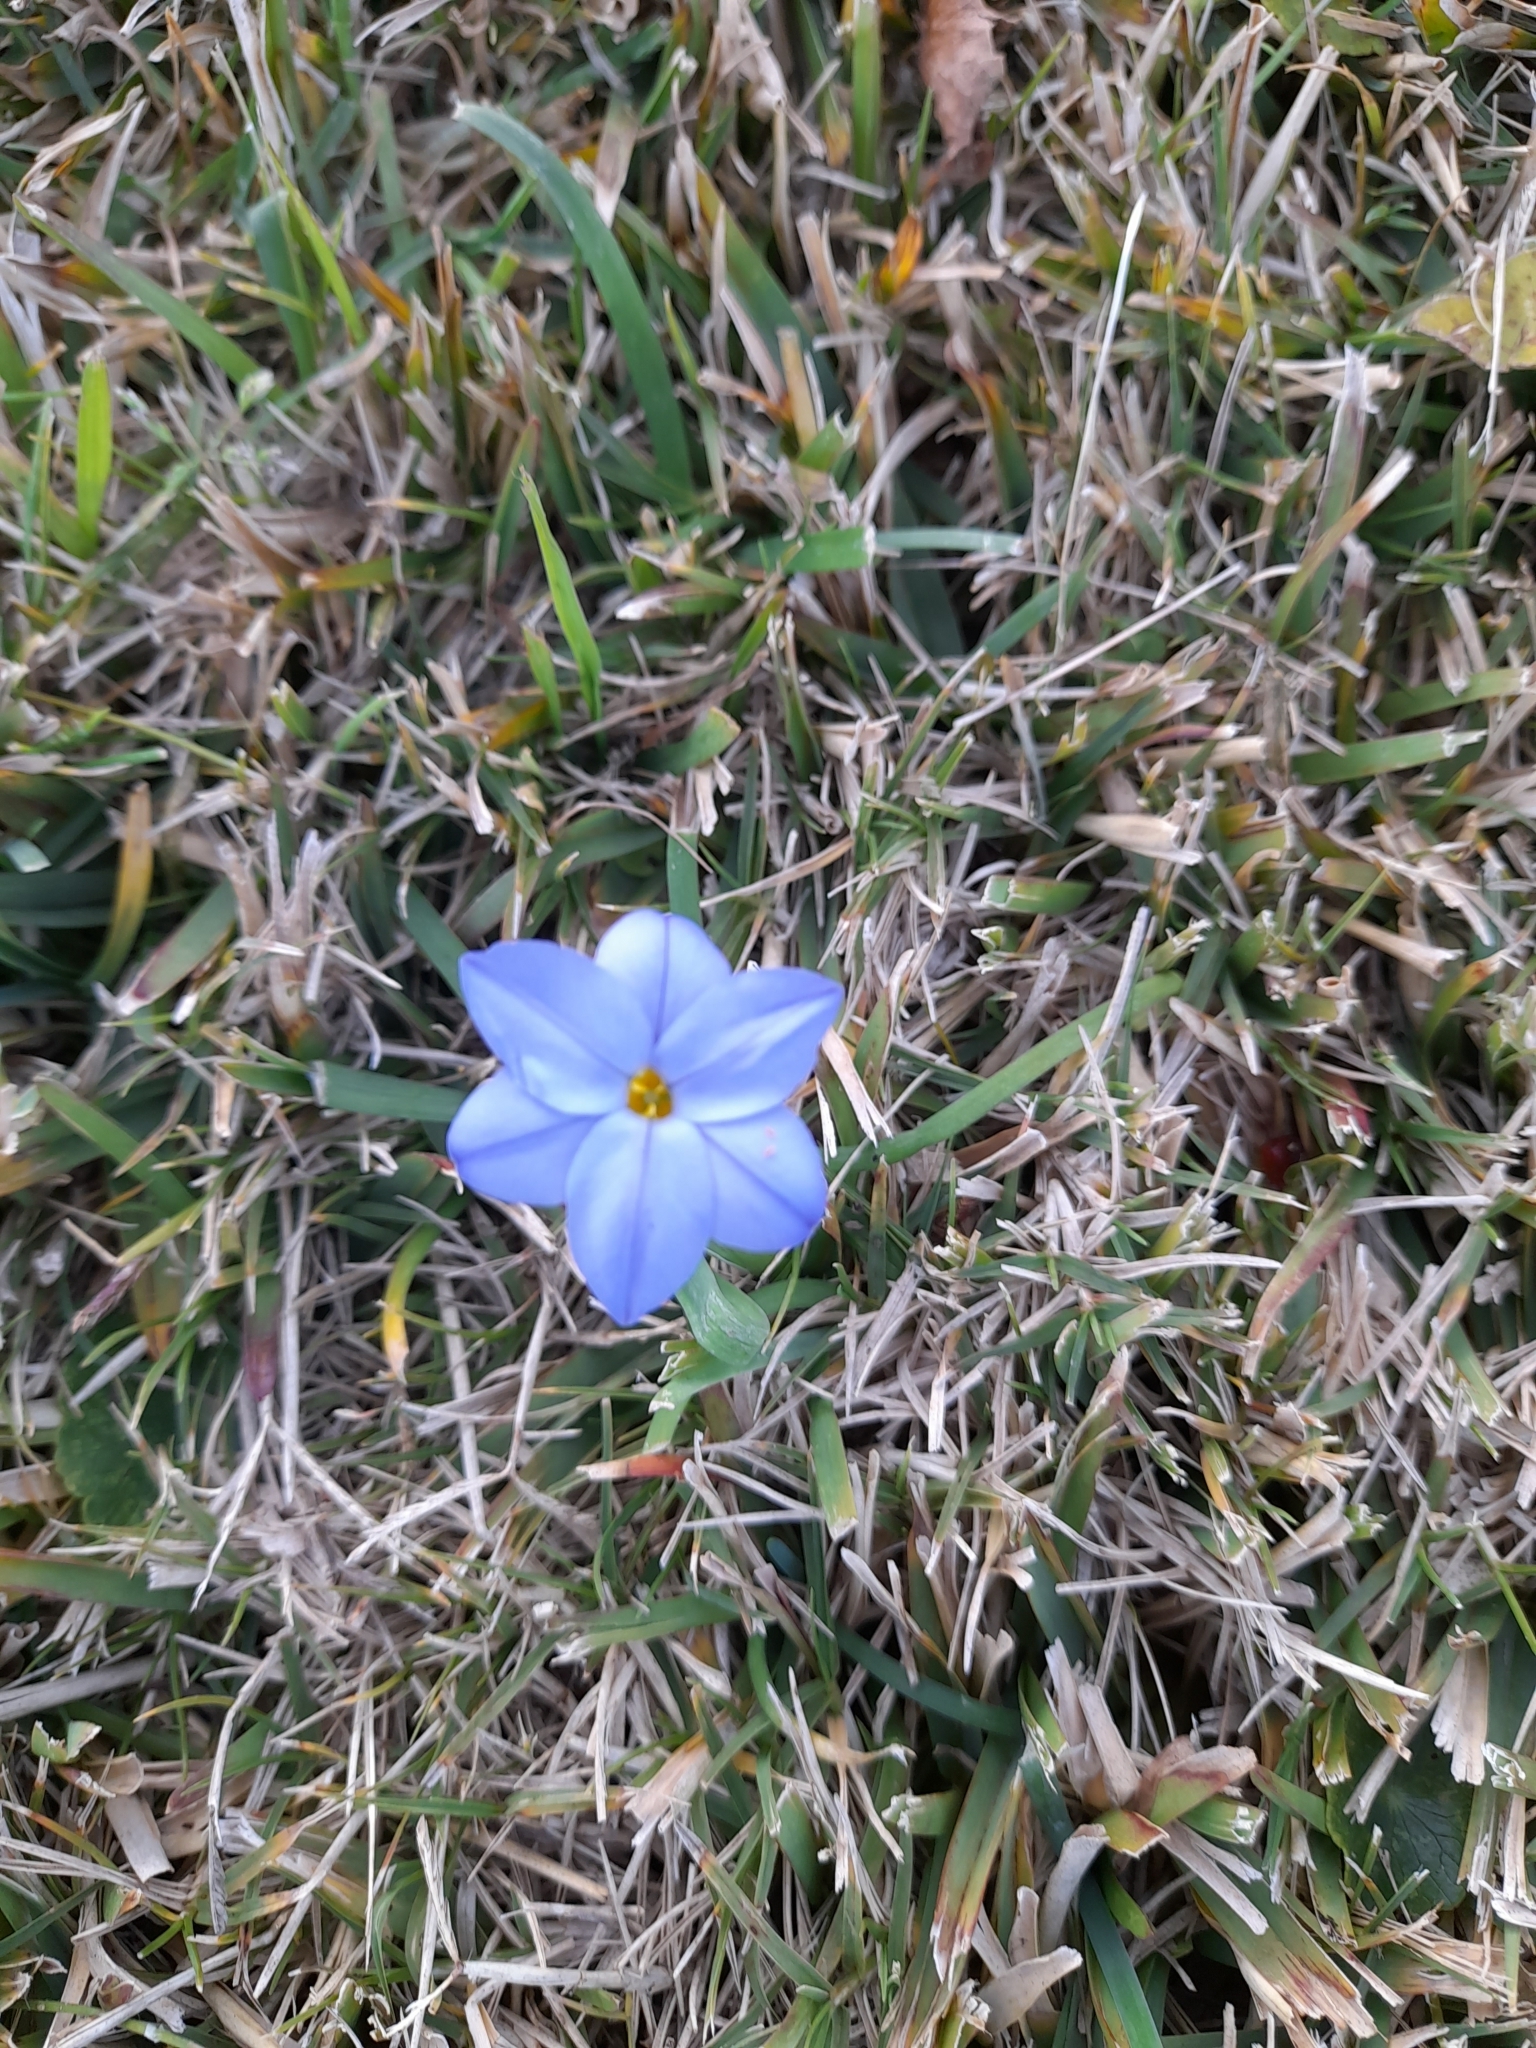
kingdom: Plantae
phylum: Tracheophyta
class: Liliopsida
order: Asparagales
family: Amaryllidaceae
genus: Ipheion
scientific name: Ipheion uniflorum
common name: Spring starflower
